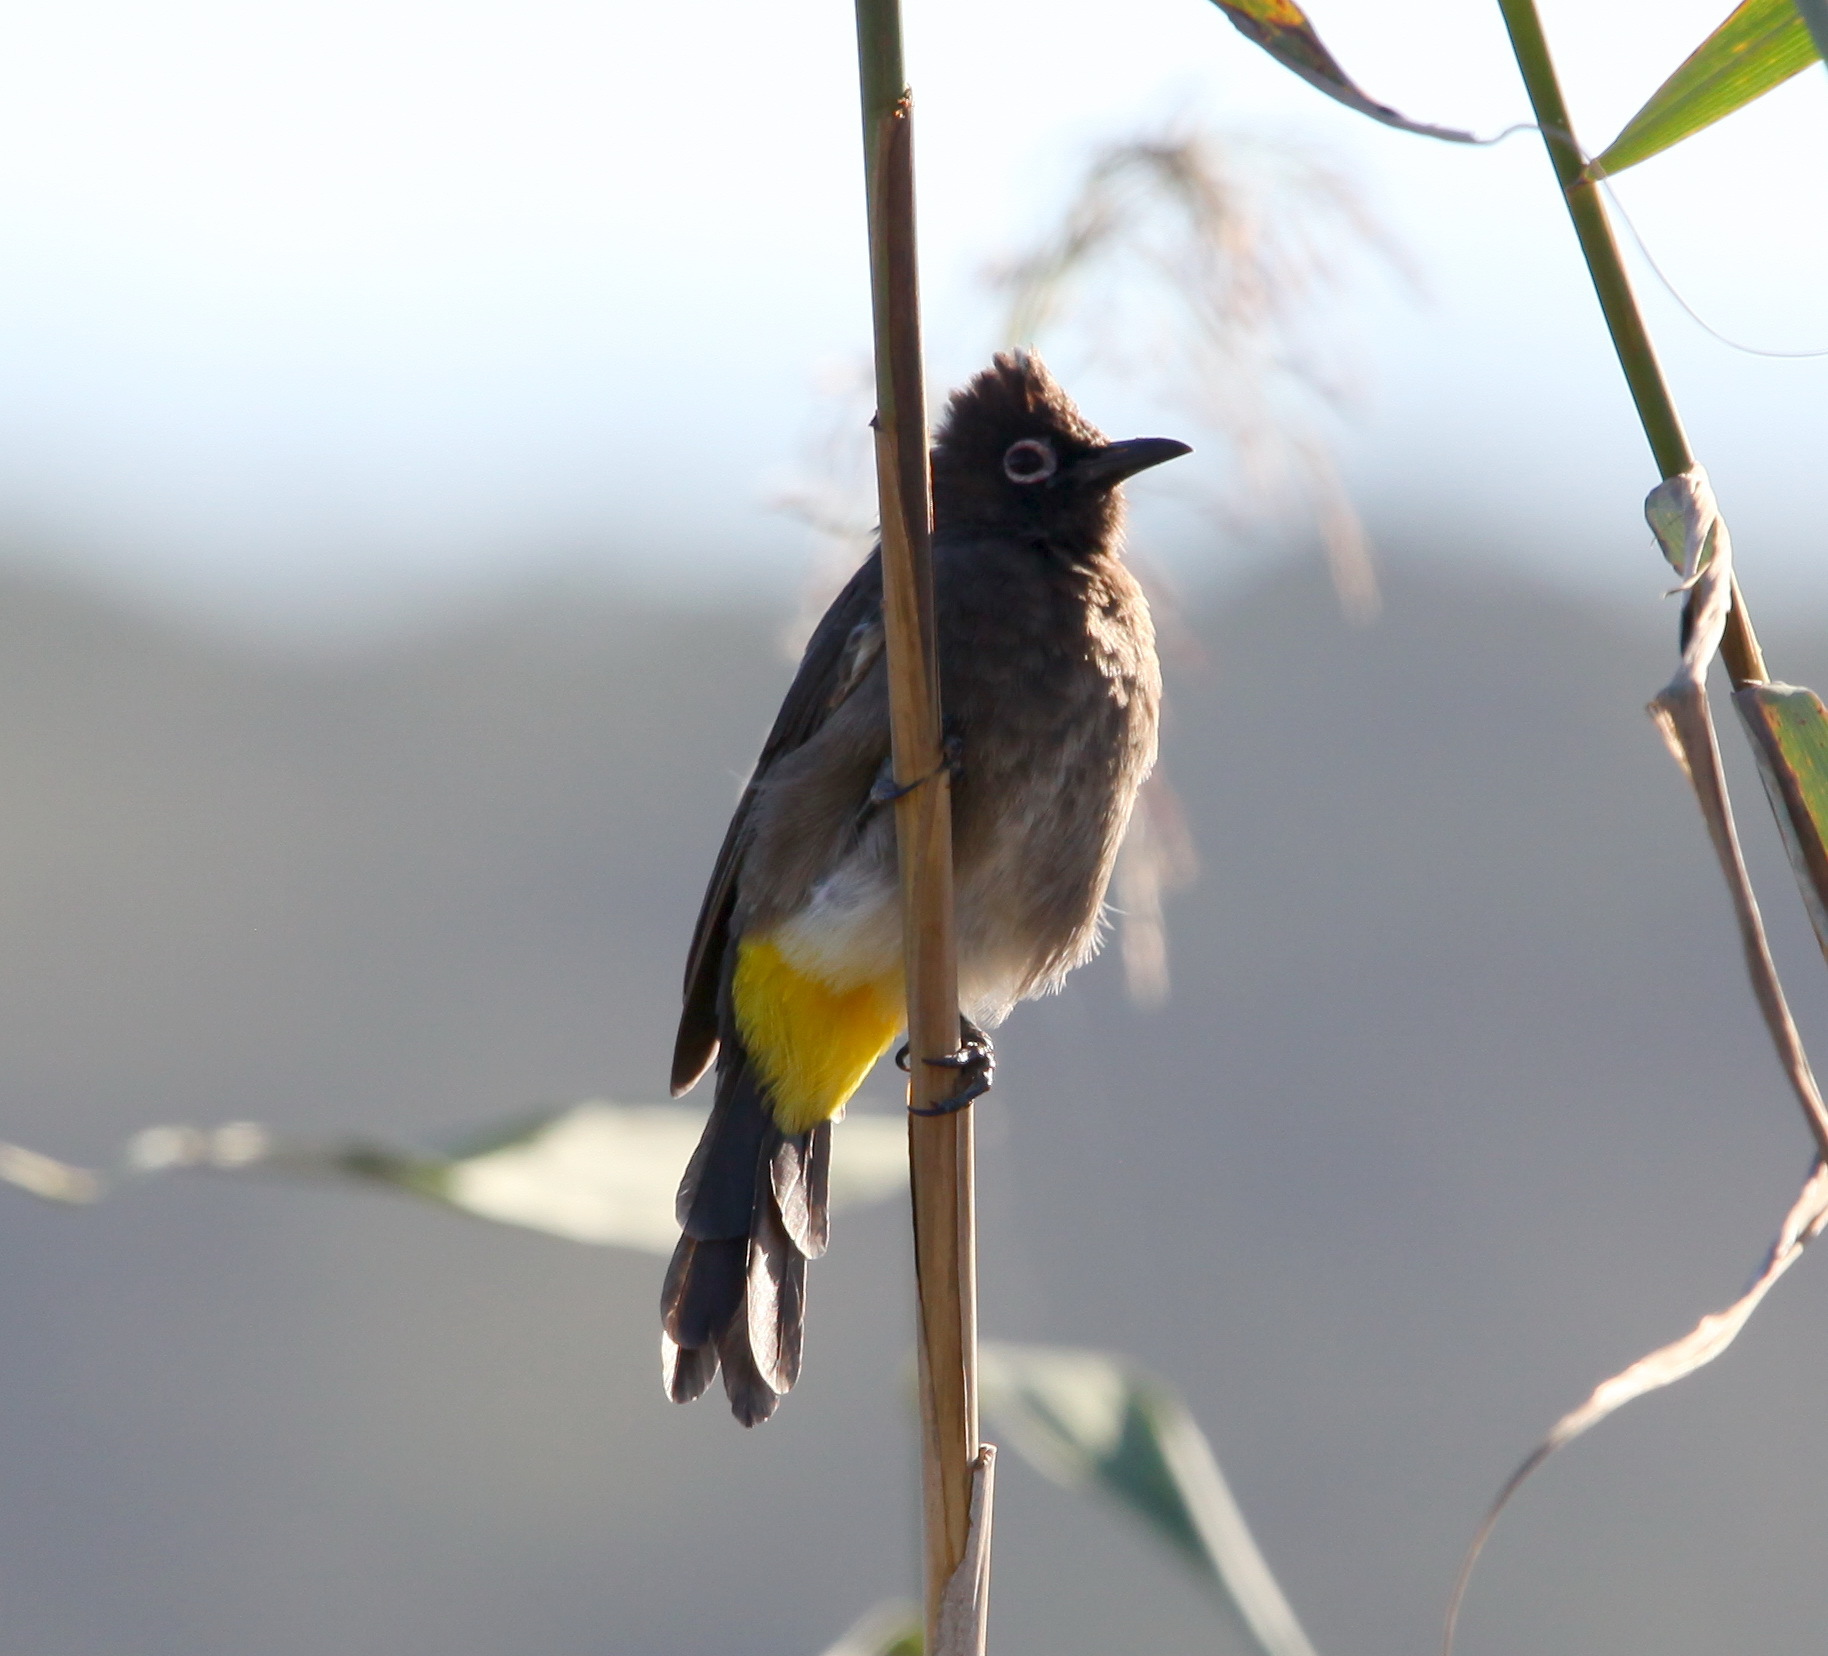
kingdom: Animalia
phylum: Chordata
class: Aves
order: Passeriformes
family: Pycnonotidae
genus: Pycnonotus
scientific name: Pycnonotus capensis
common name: Cape bulbul
